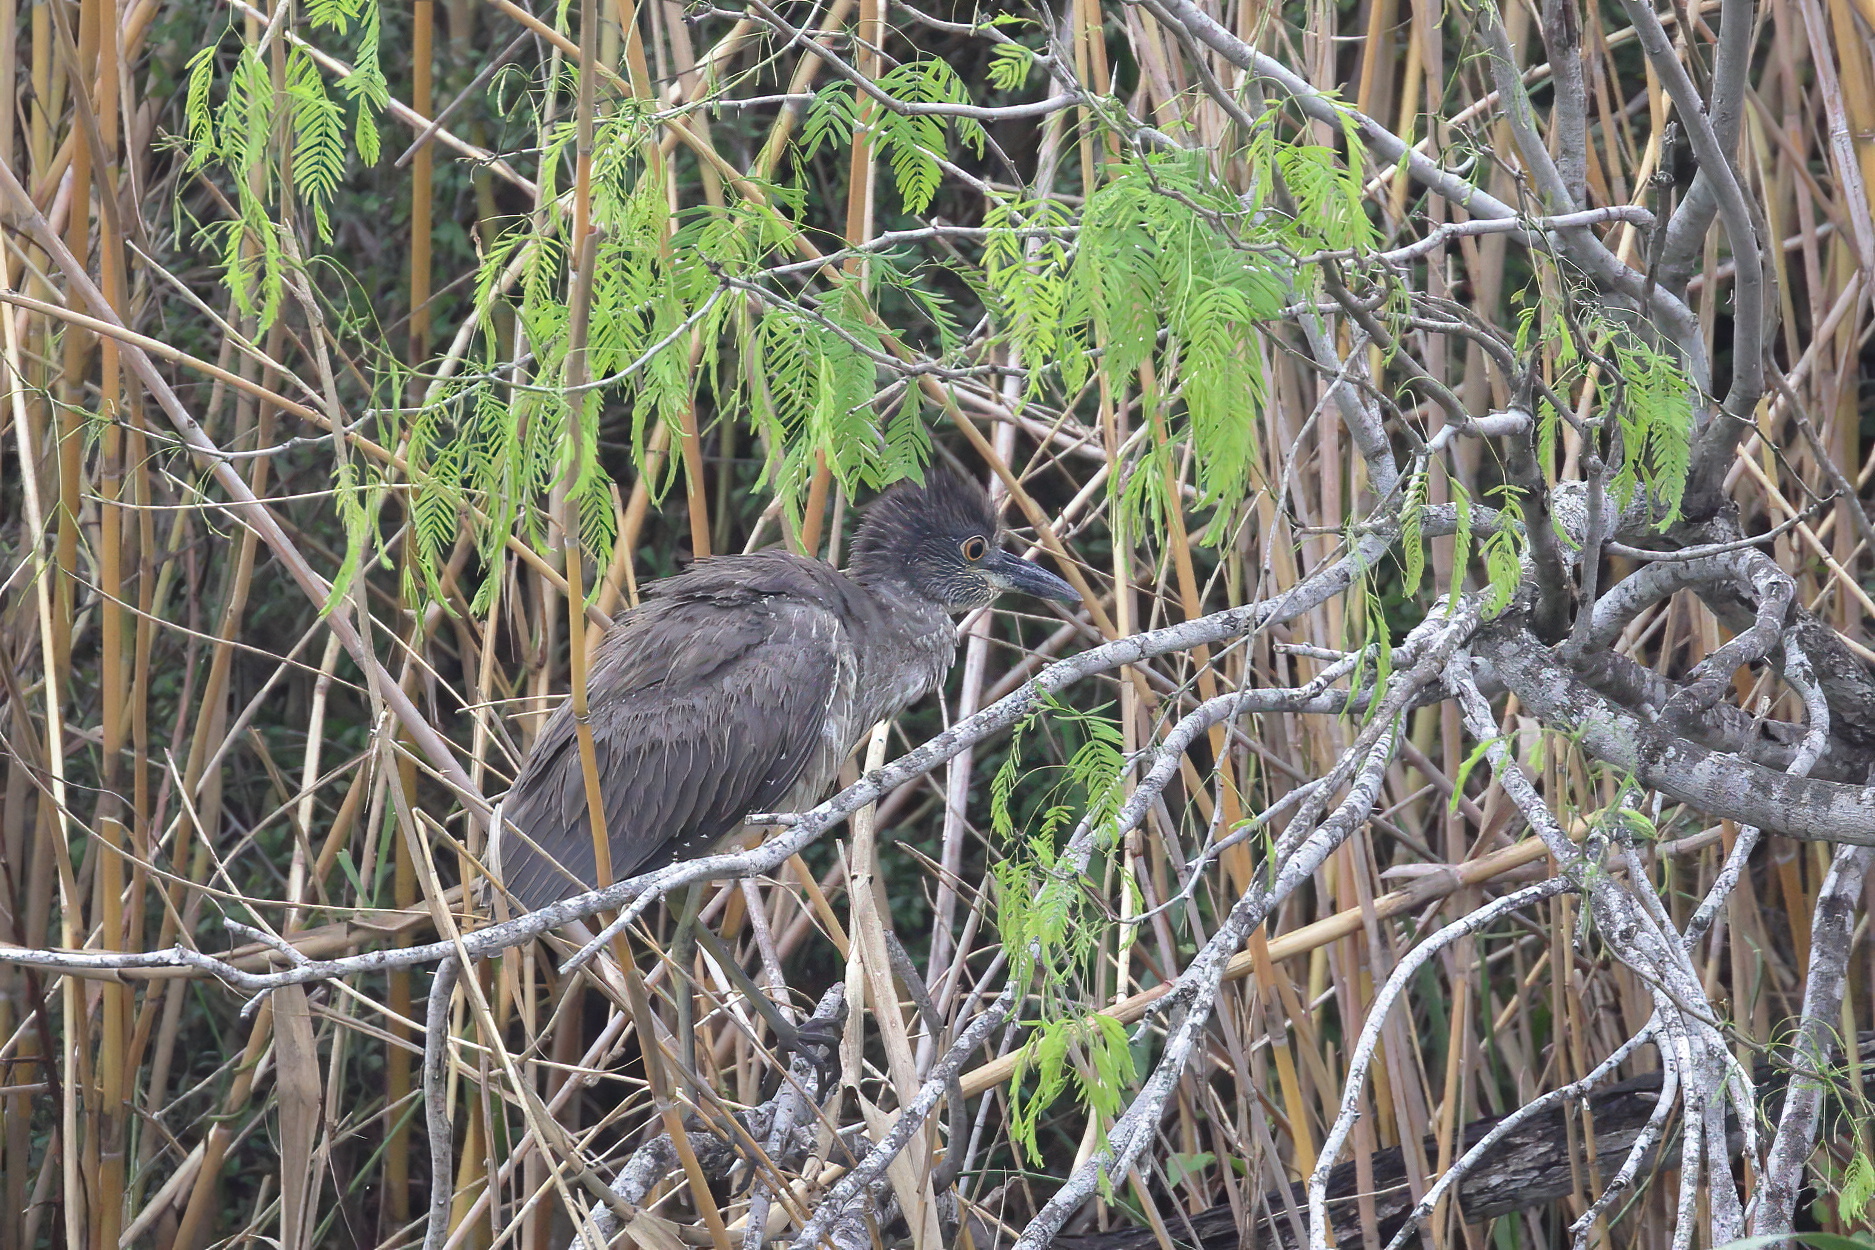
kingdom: Animalia
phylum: Chordata
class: Aves
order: Pelecaniformes
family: Ardeidae
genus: Nyctanassa
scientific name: Nyctanassa violacea
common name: Yellow-crowned night heron
